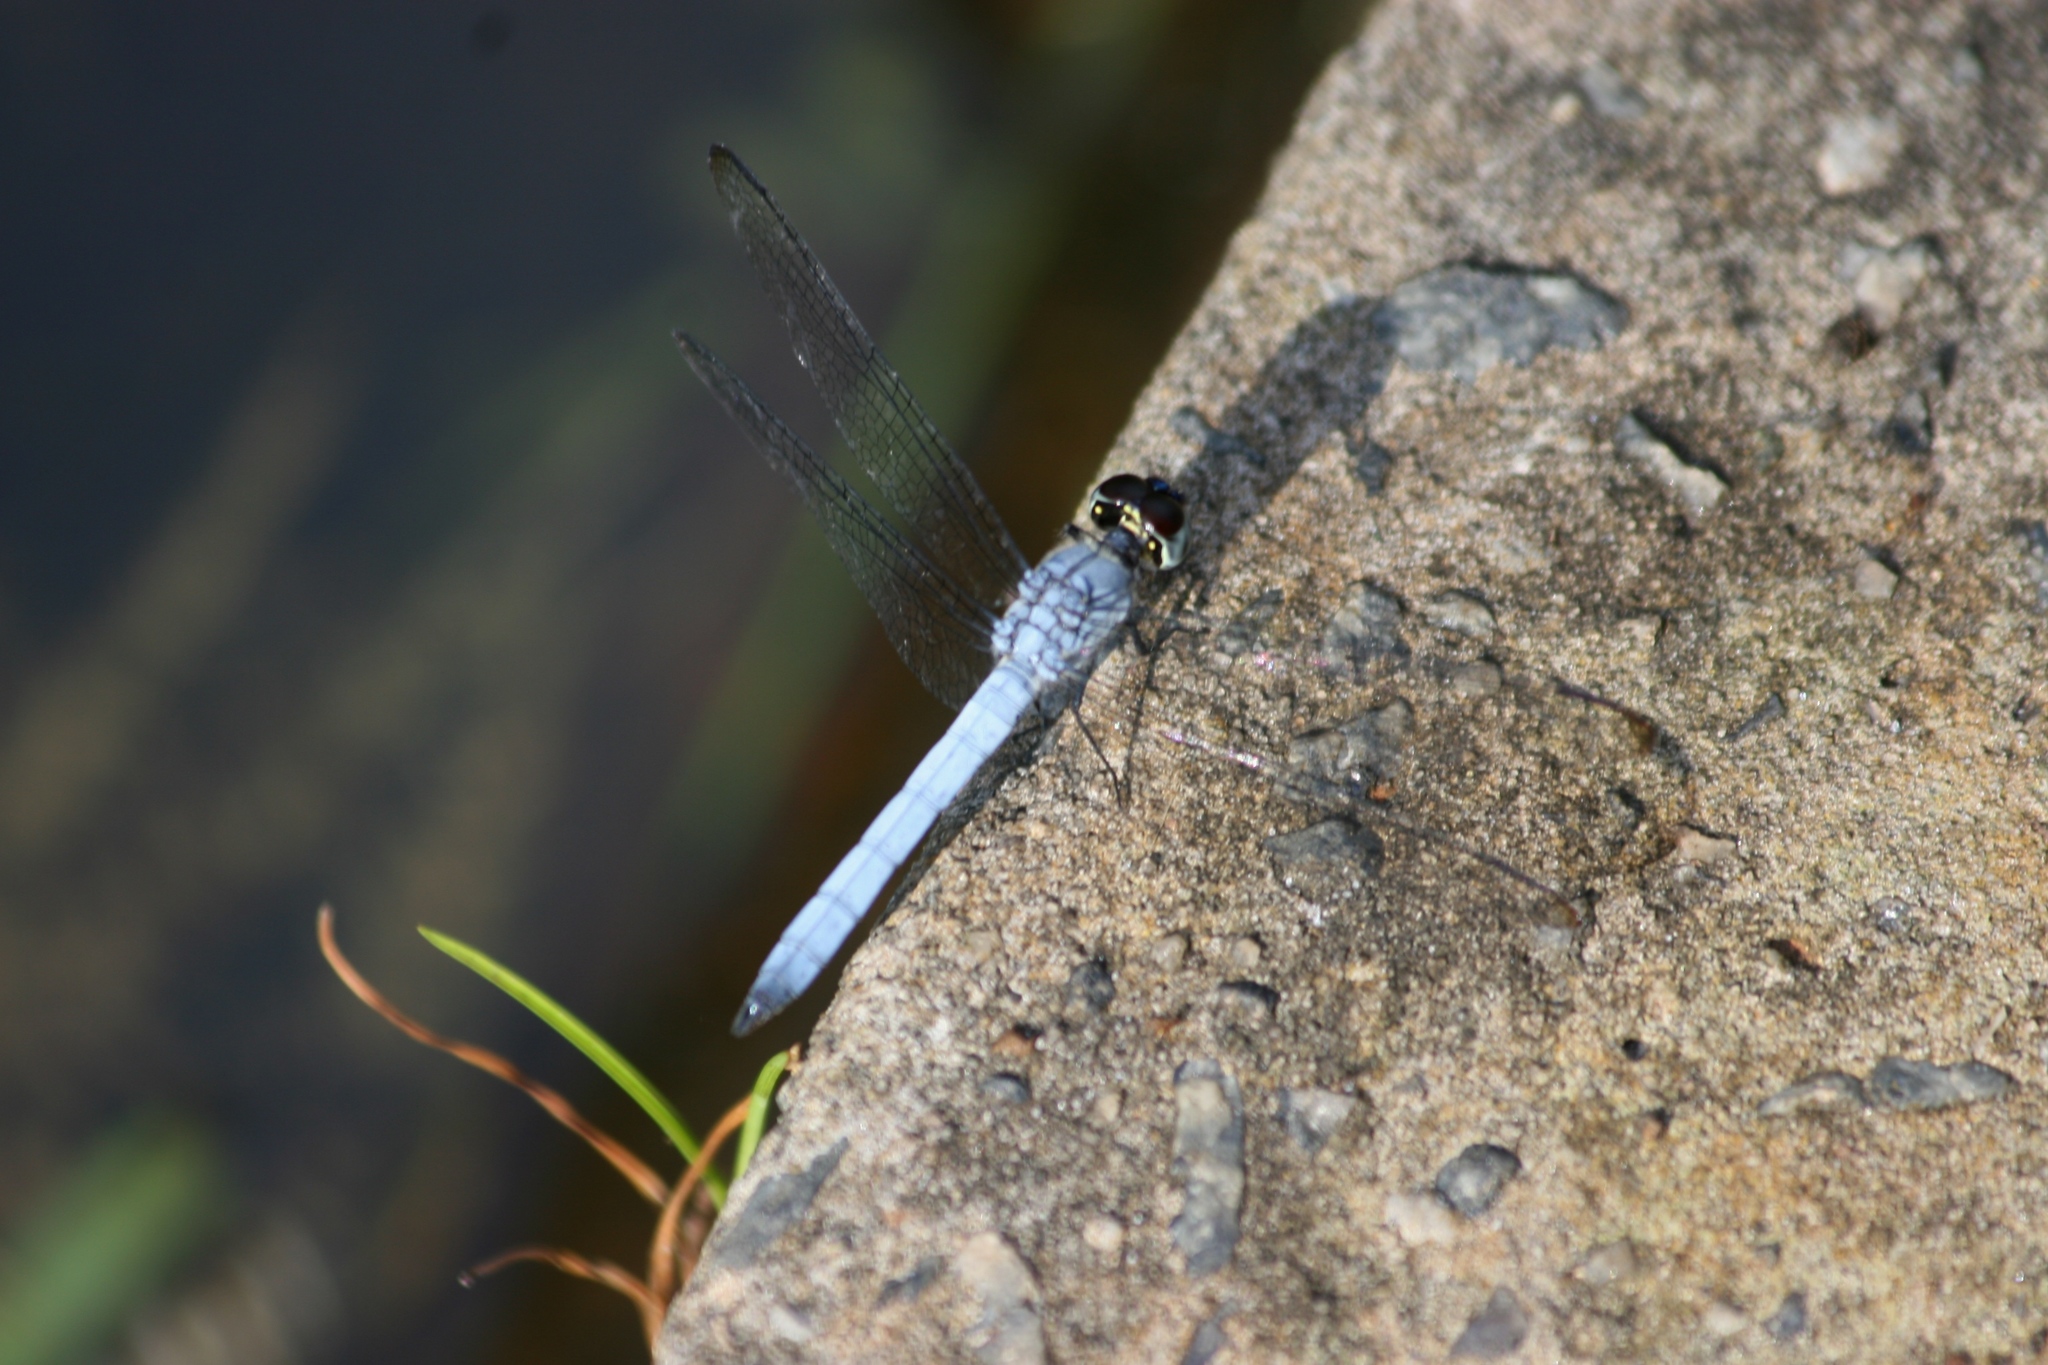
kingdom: Animalia
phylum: Arthropoda
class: Insecta
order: Odonata
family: Libellulidae
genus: Chalcostephia
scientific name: Chalcostephia flavifrons
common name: Inspector
